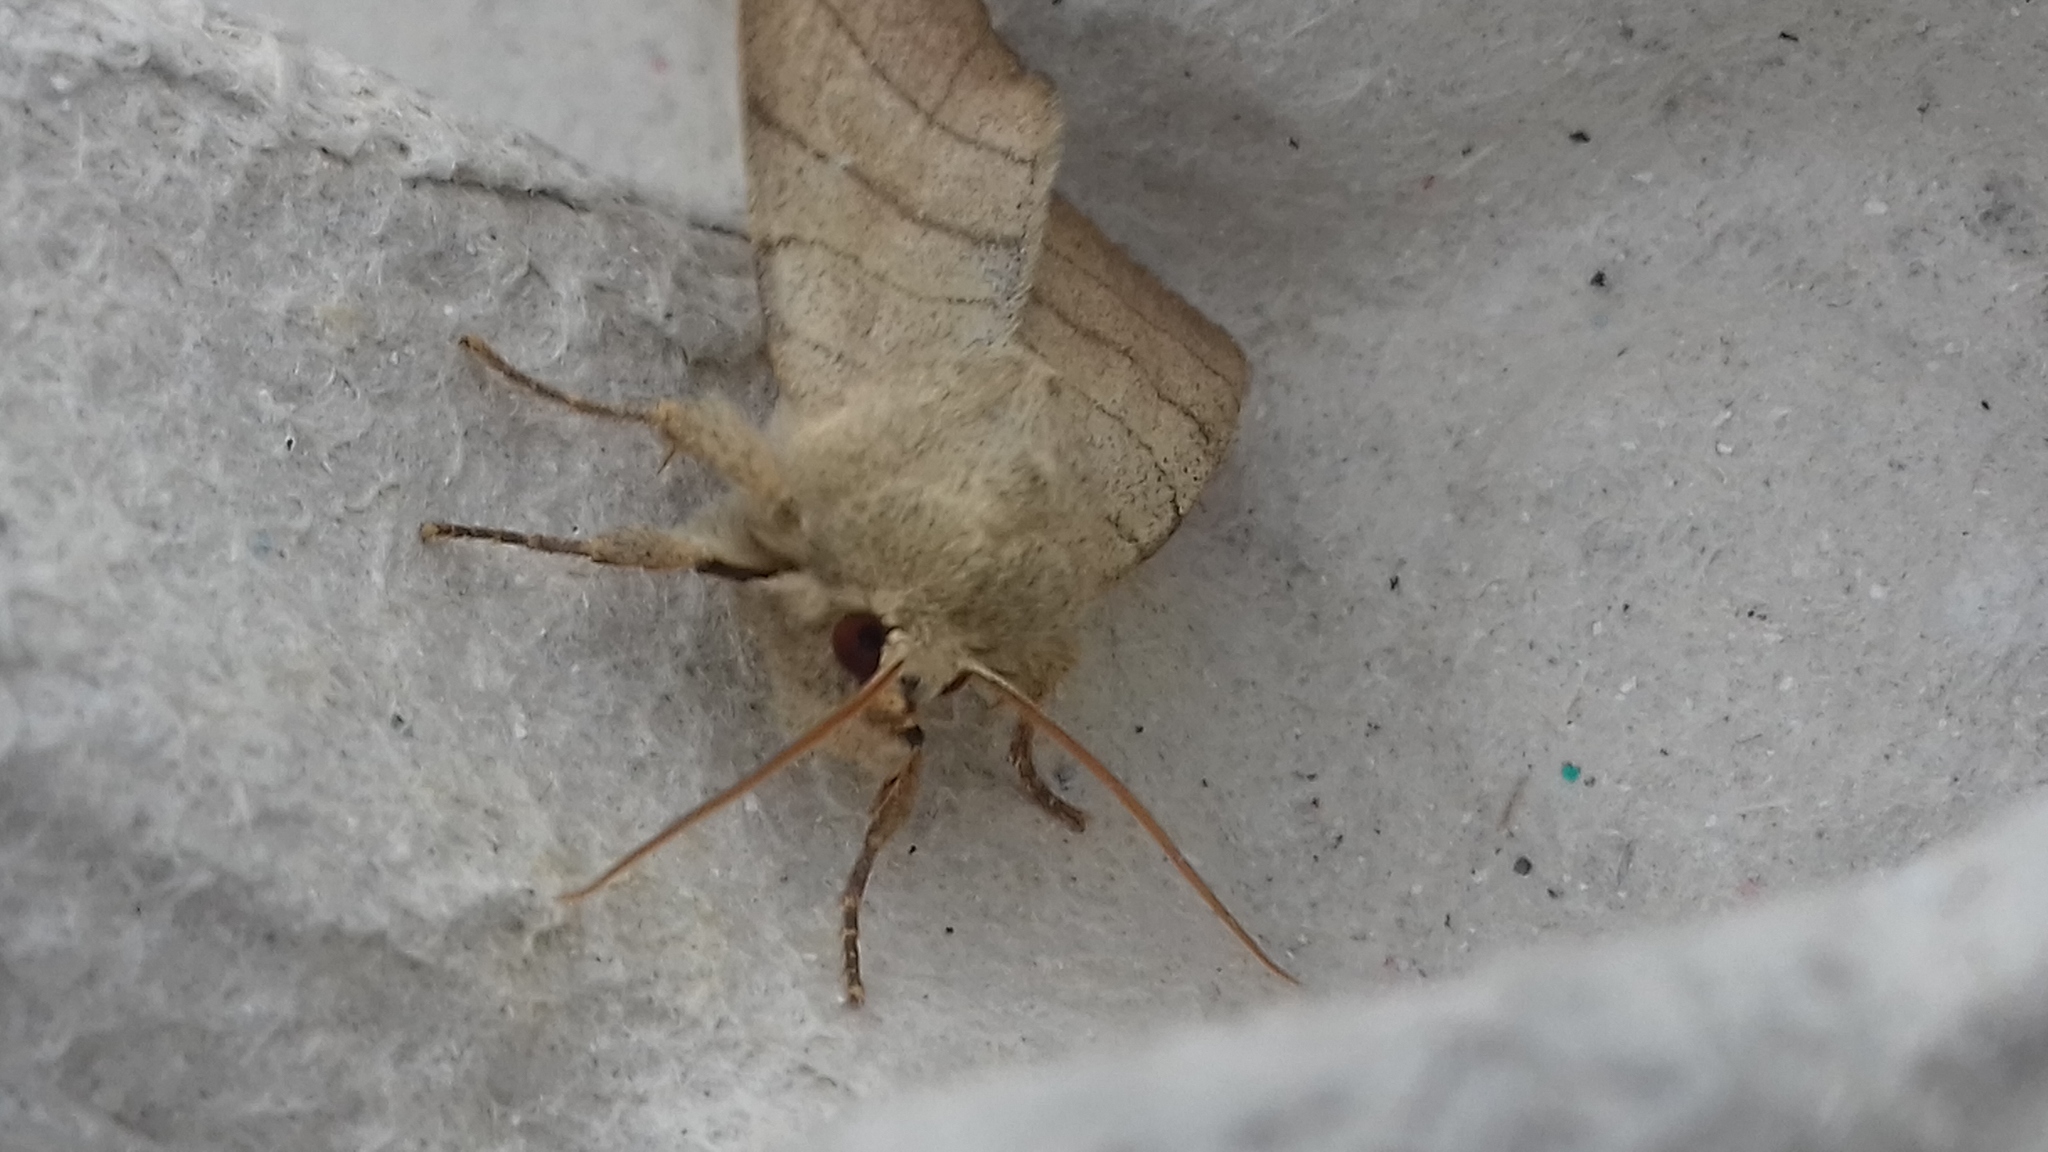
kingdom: Animalia
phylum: Arthropoda
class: Insecta
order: Lepidoptera
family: Noctuidae
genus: Charanyca
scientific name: Charanyca trigrammica
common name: Treble lines
